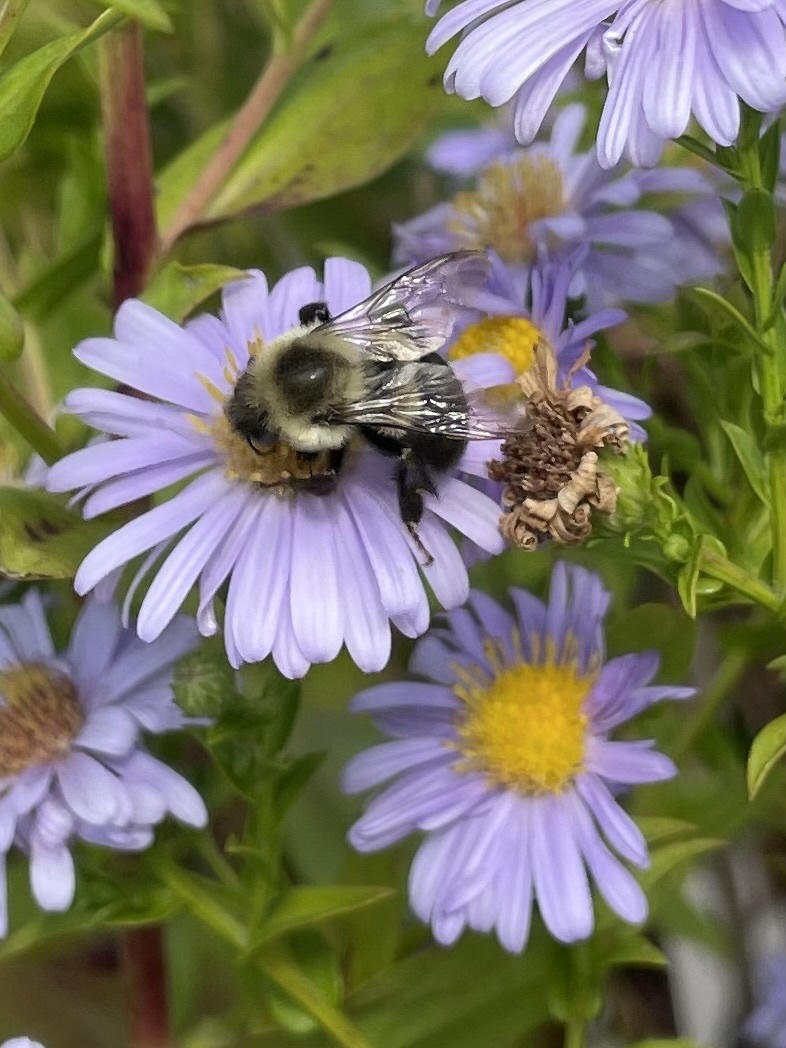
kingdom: Animalia
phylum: Arthropoda
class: Insecta
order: Hymenoptera
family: Apidae
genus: Bombus
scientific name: Bombus impatiens
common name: Common eastern bumble bee
